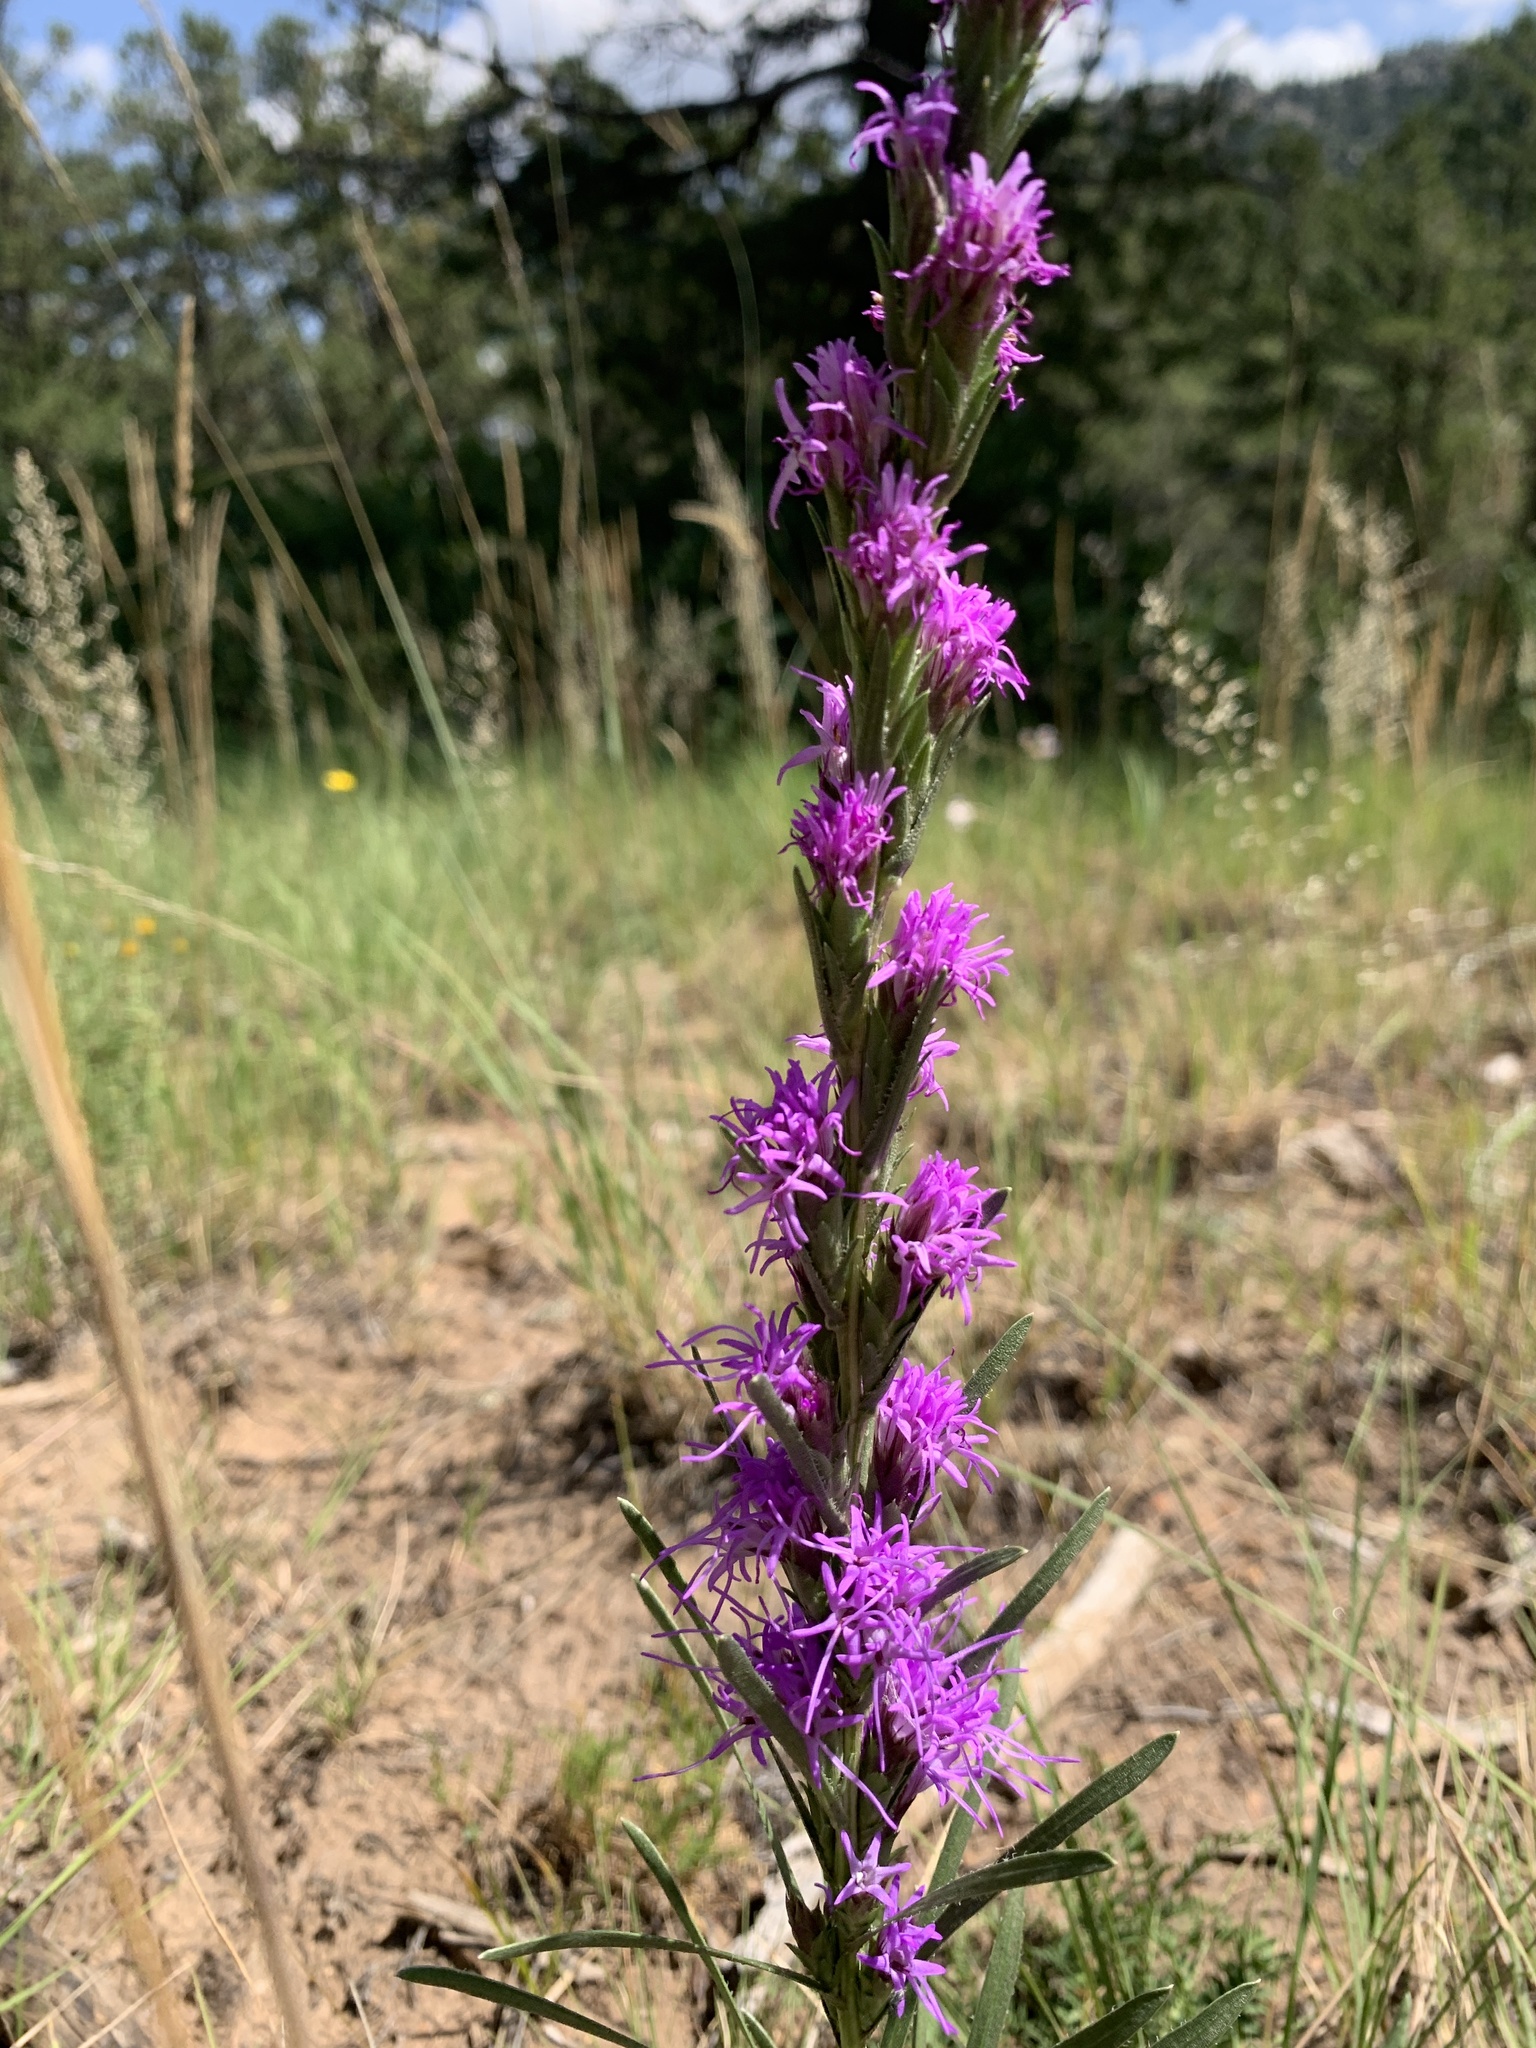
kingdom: Plantae
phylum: Tracheophyta
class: Magnoliopsida
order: Asterales
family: Asteraceae
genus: Liatris
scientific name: Liatris punctata
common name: Dotted gayfeather
